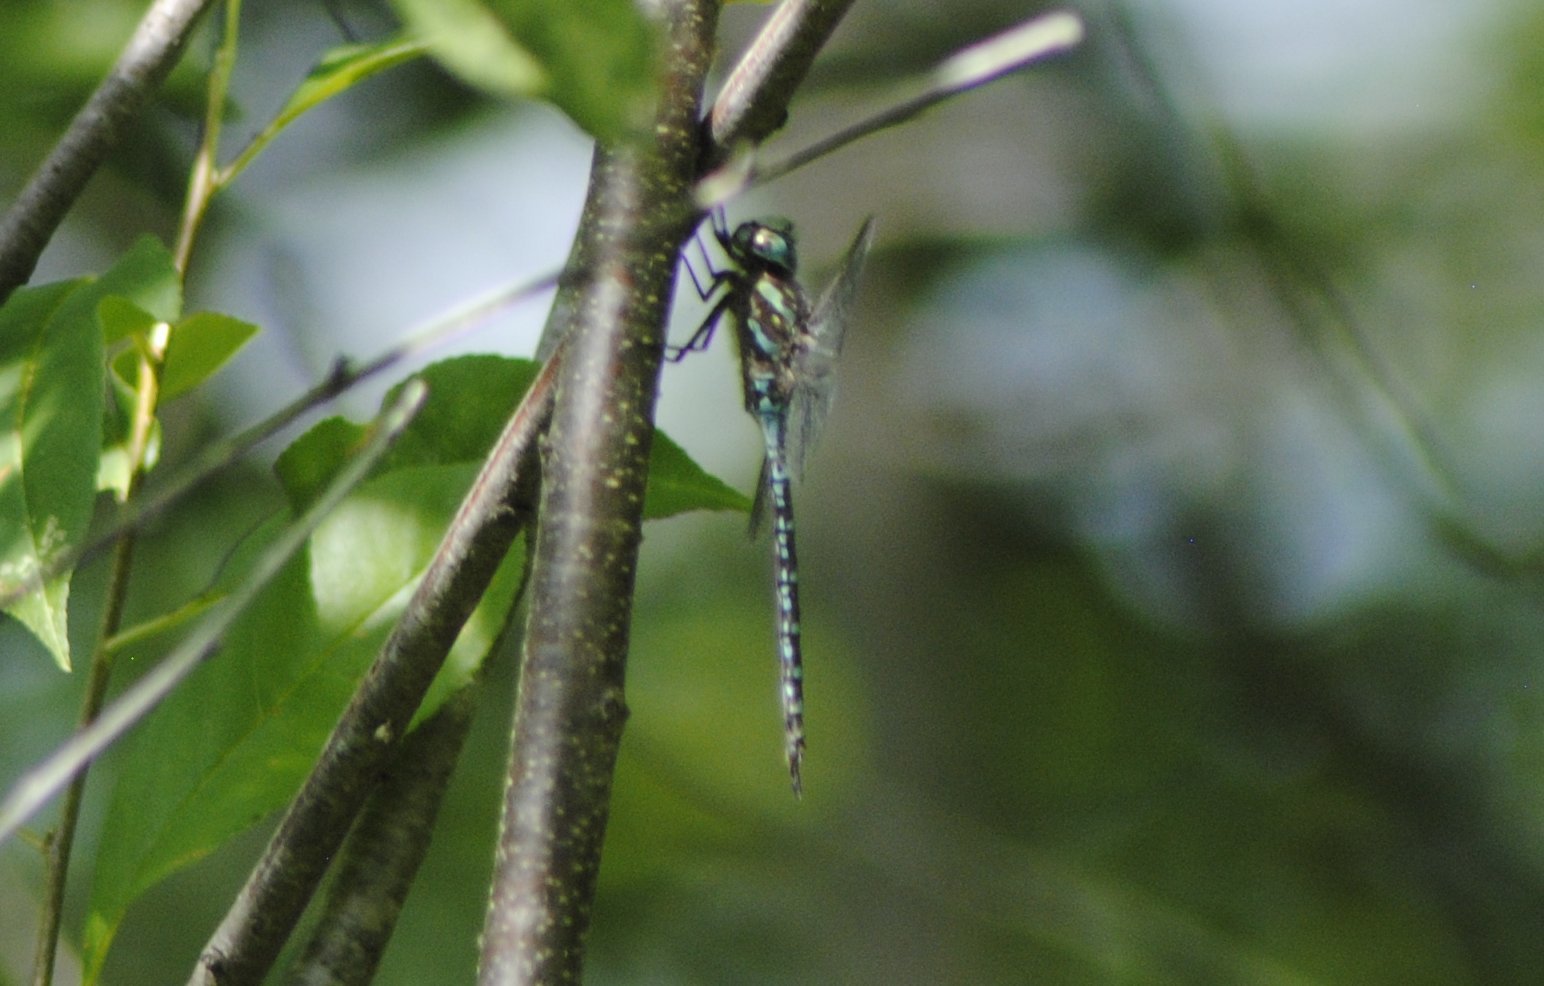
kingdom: Animalia
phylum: Arthropoda
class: Insecta
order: Odonata
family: Aeshnidae
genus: Aeshna
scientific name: Aeshna canadensis
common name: Canada darner
